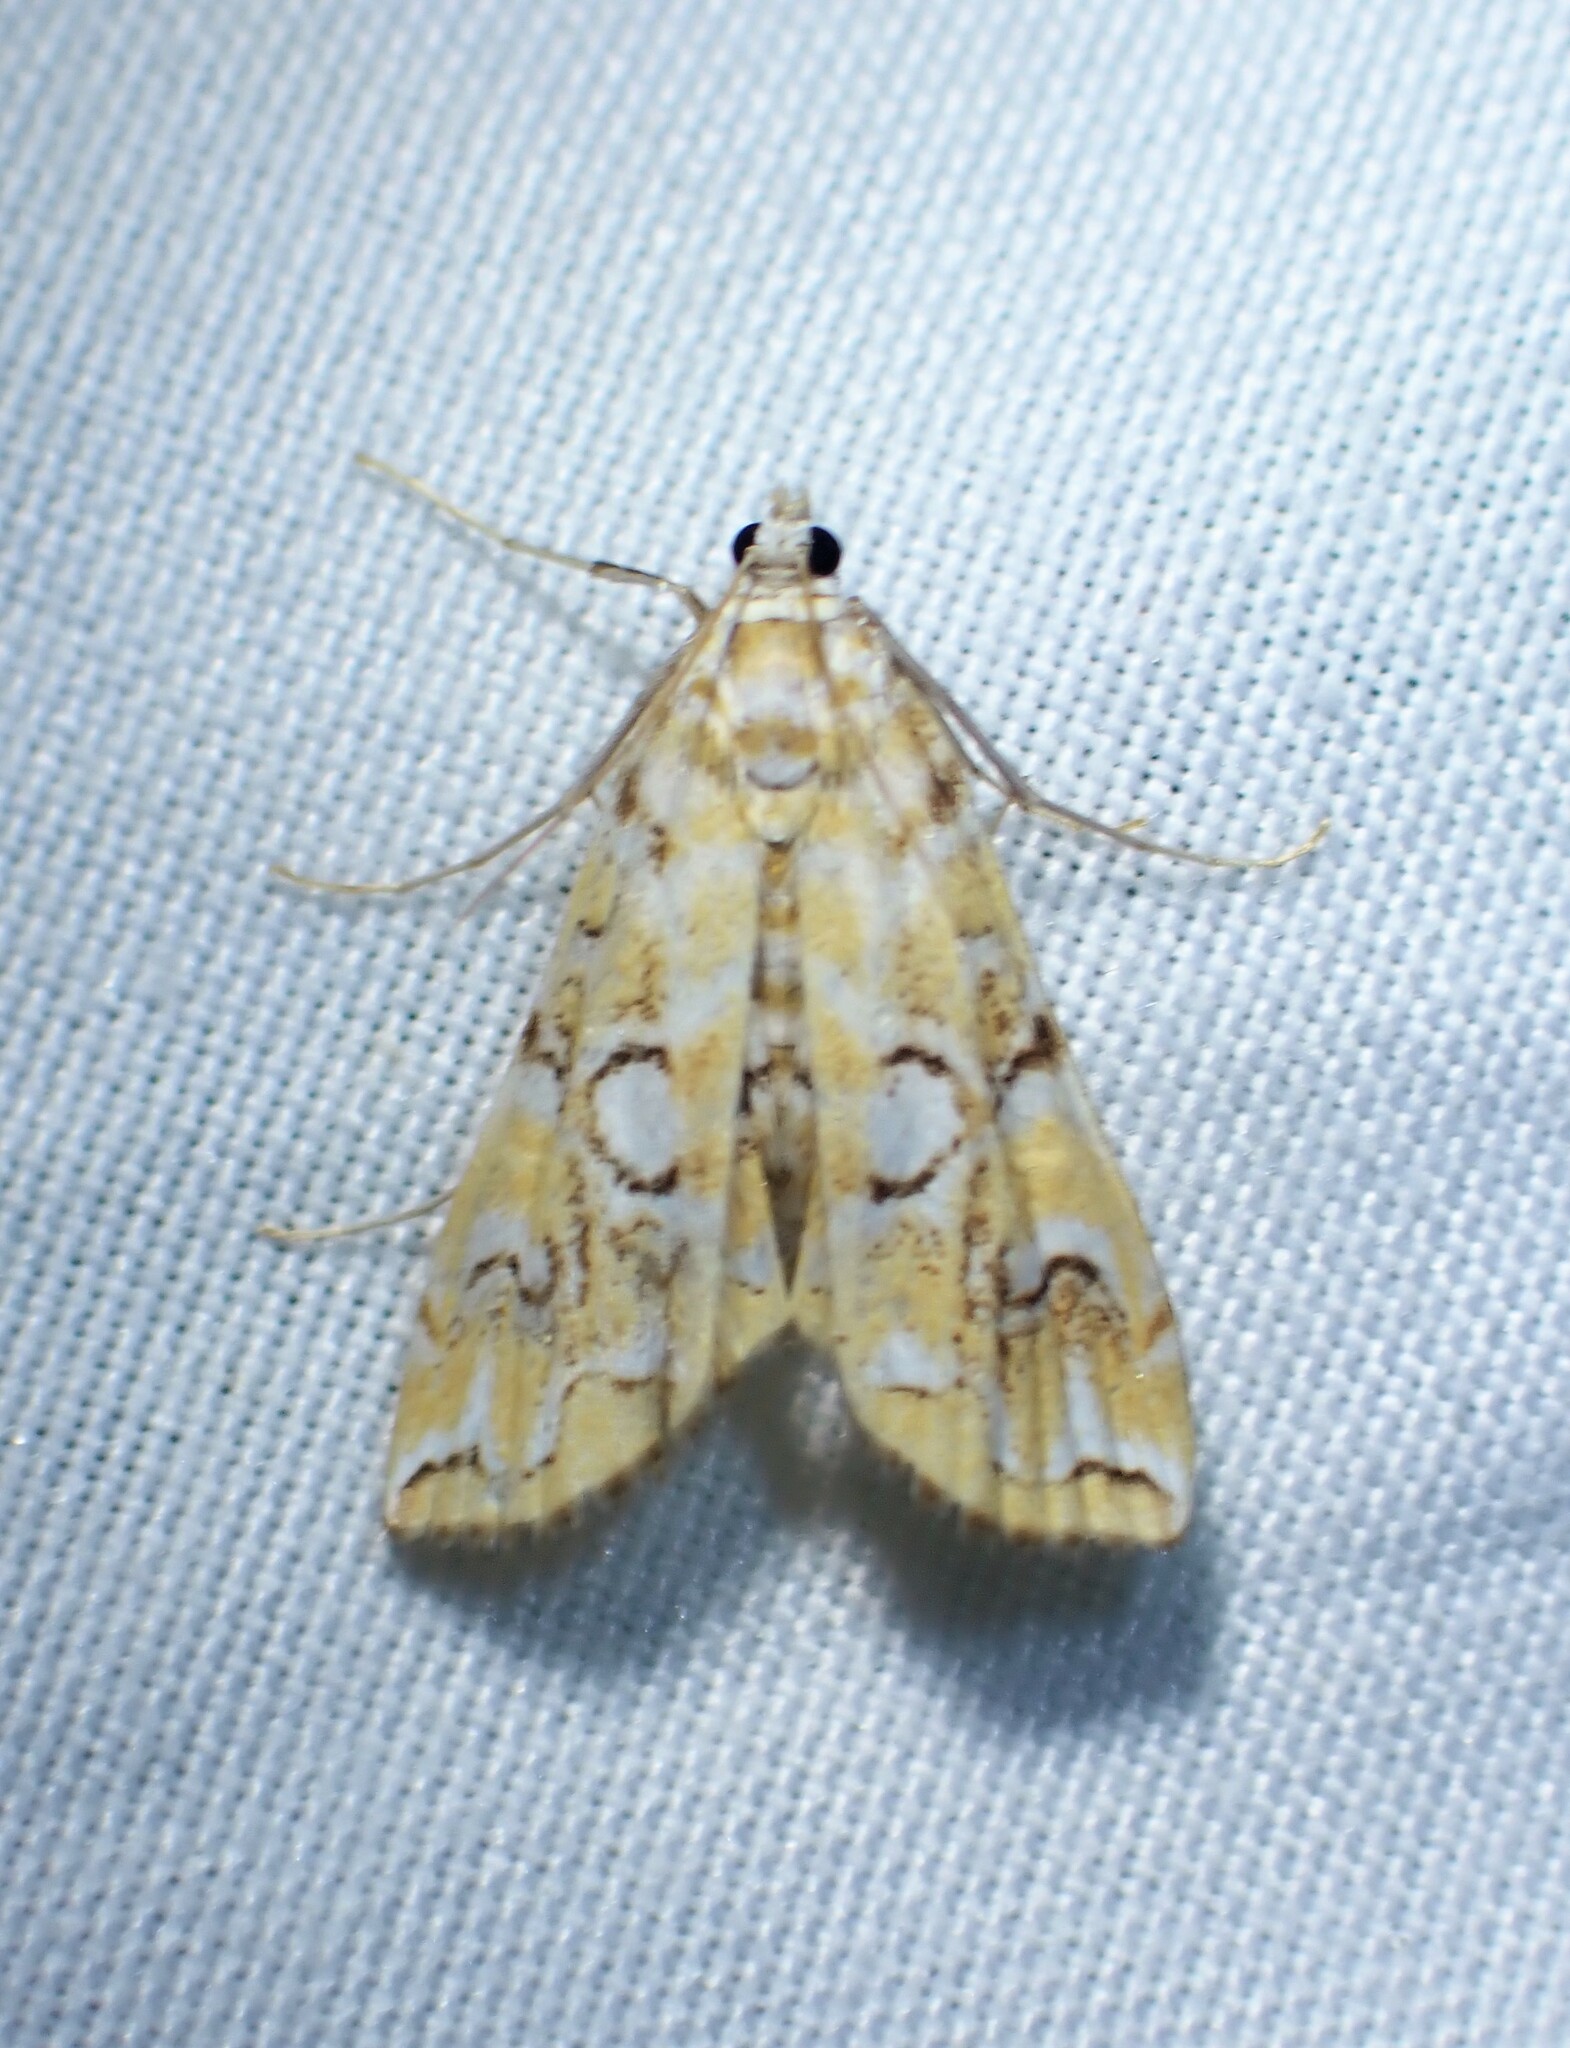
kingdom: Animalia
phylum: Arthropoda
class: Insecta
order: Lepidoptera
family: Crambidae
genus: Elophila
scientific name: Elophila icciusalis
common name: Pondside pyralid moth
